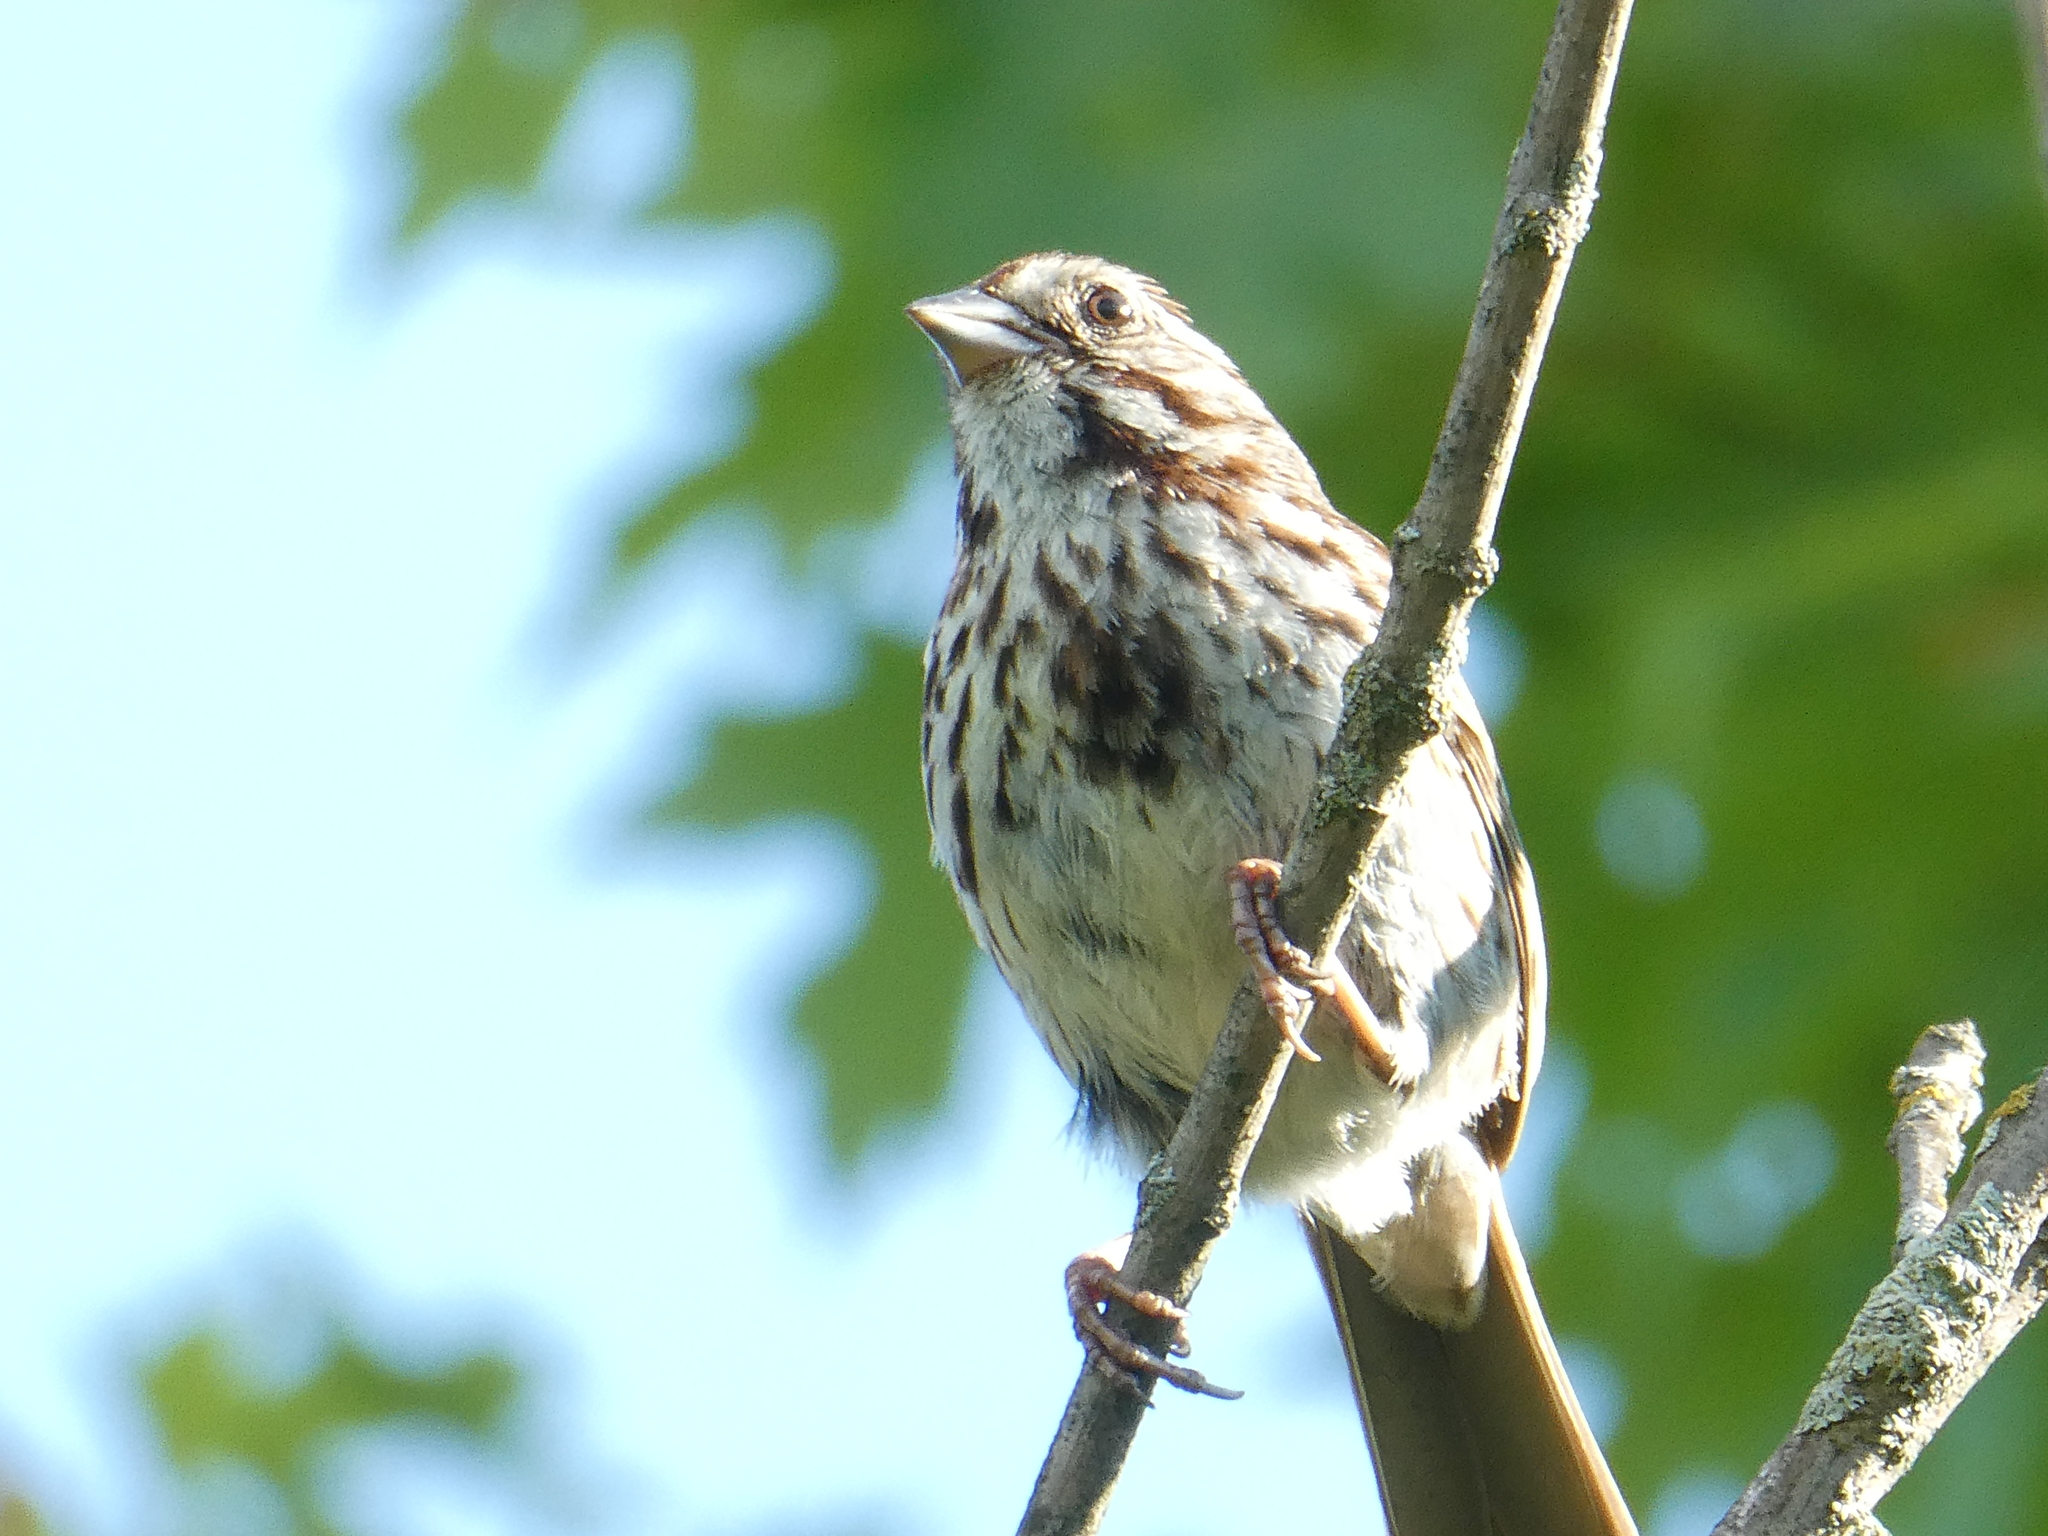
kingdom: Animalia
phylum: Chordata
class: Aves
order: Passeriformes
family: Passerellidae
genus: Melospiza
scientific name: Melospiza melodia
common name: Song sparrow
